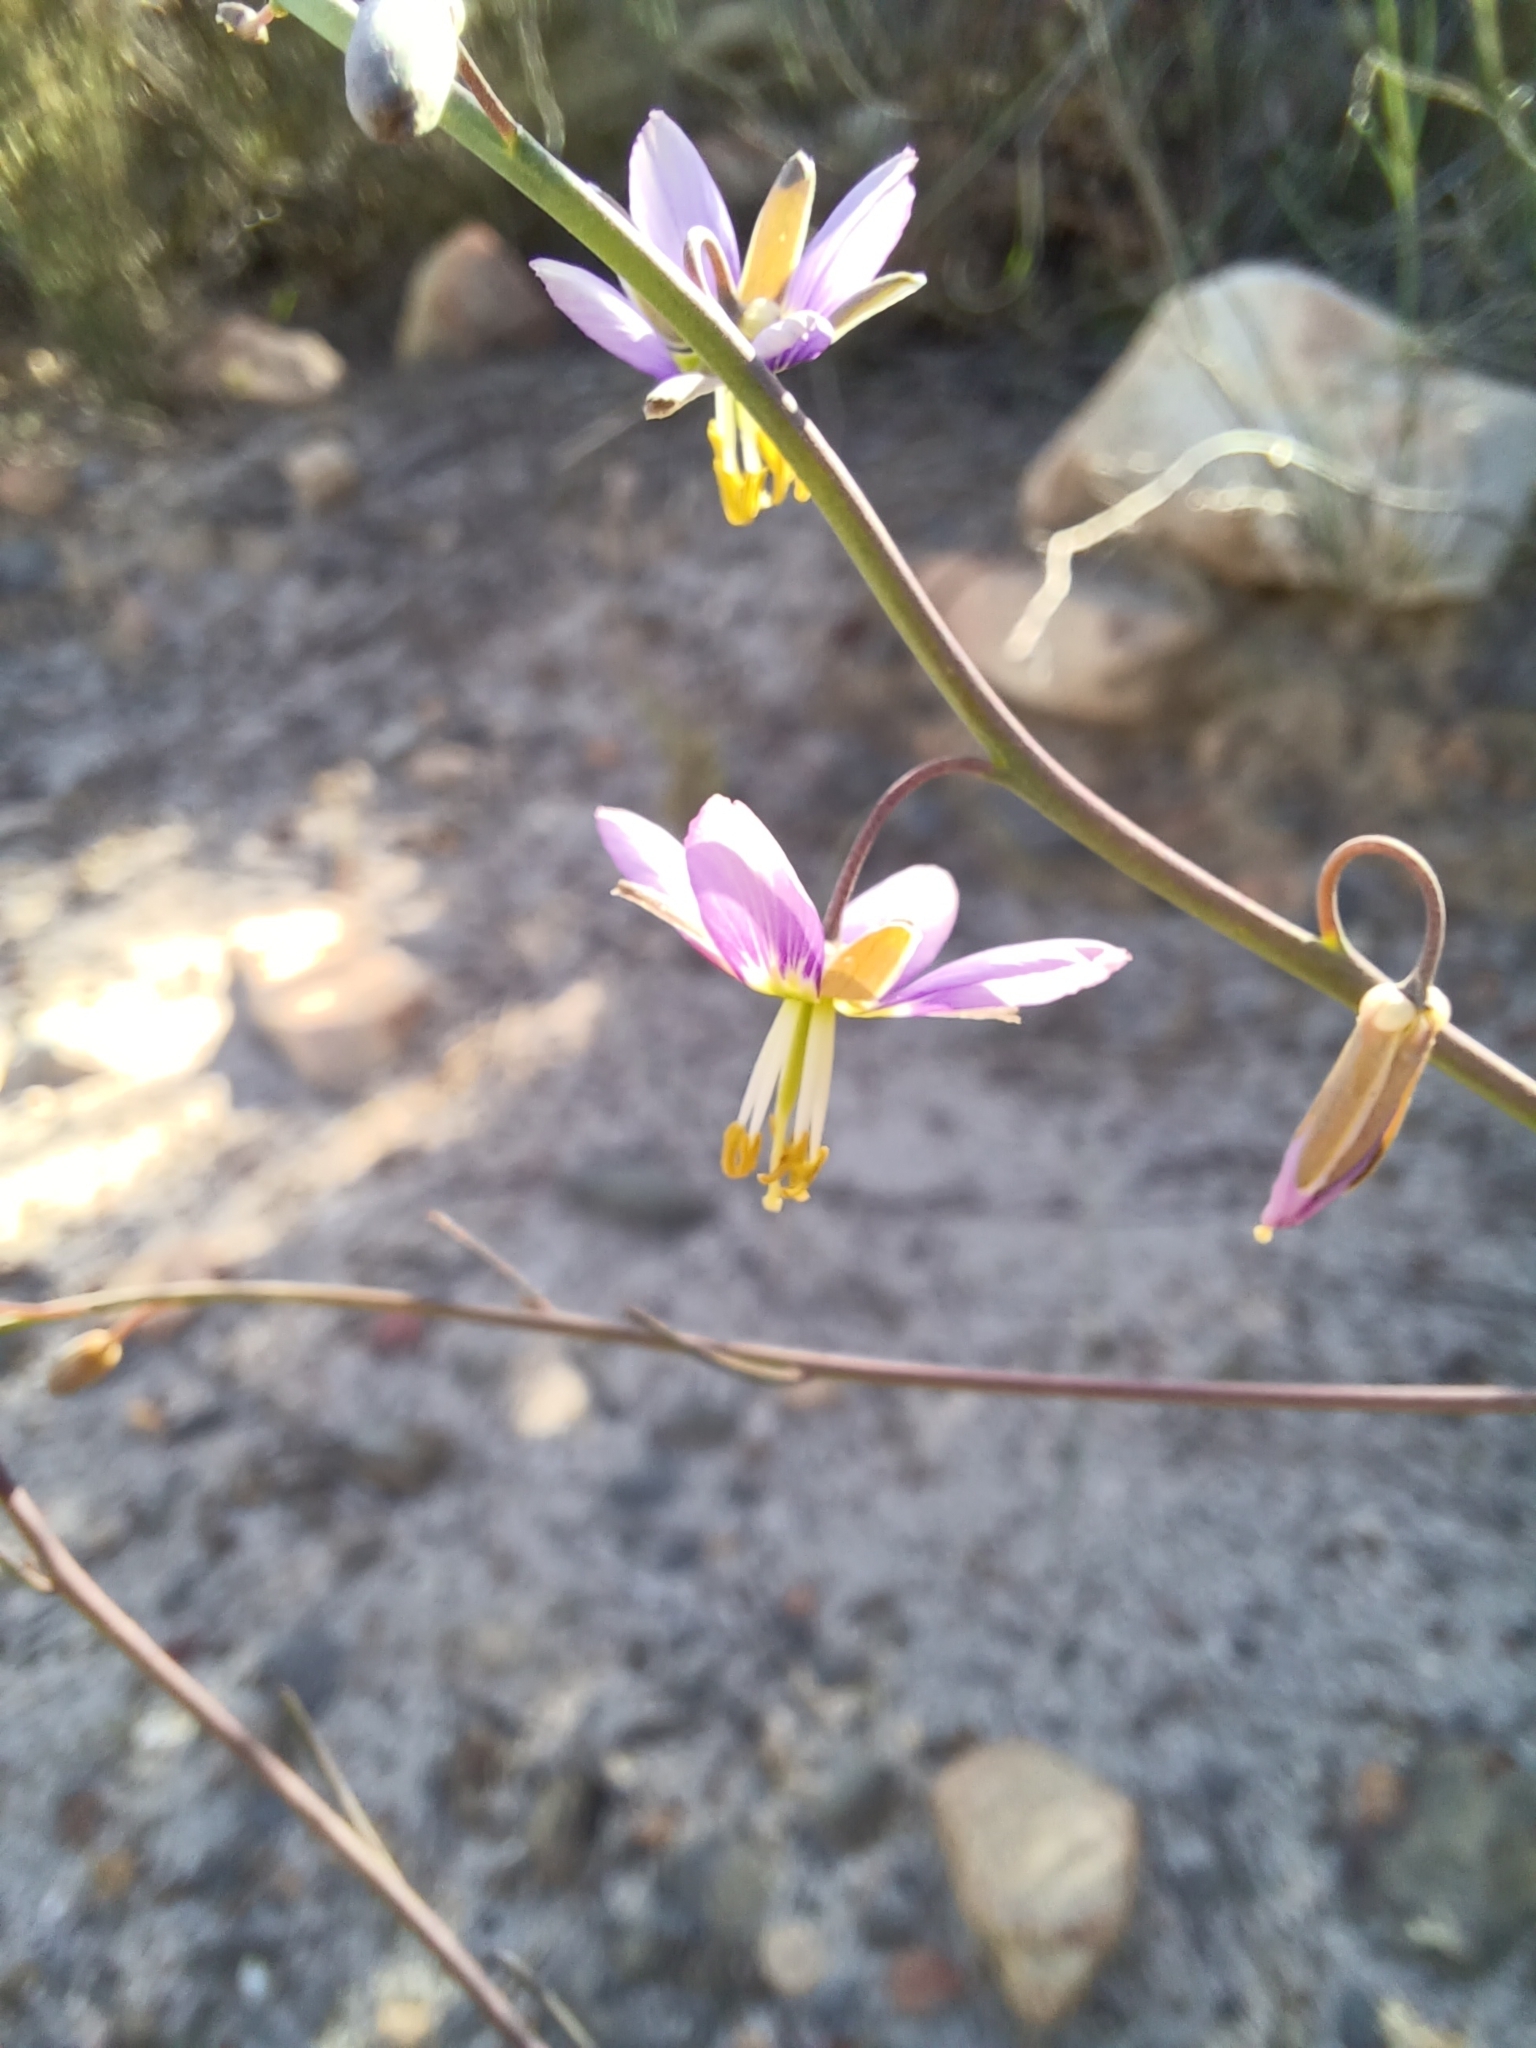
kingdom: Plantae
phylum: Tracheophyta
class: Magnoliopsida
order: Brassicales
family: Brassicaceae
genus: Heliophila
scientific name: Heliophila cornuta
